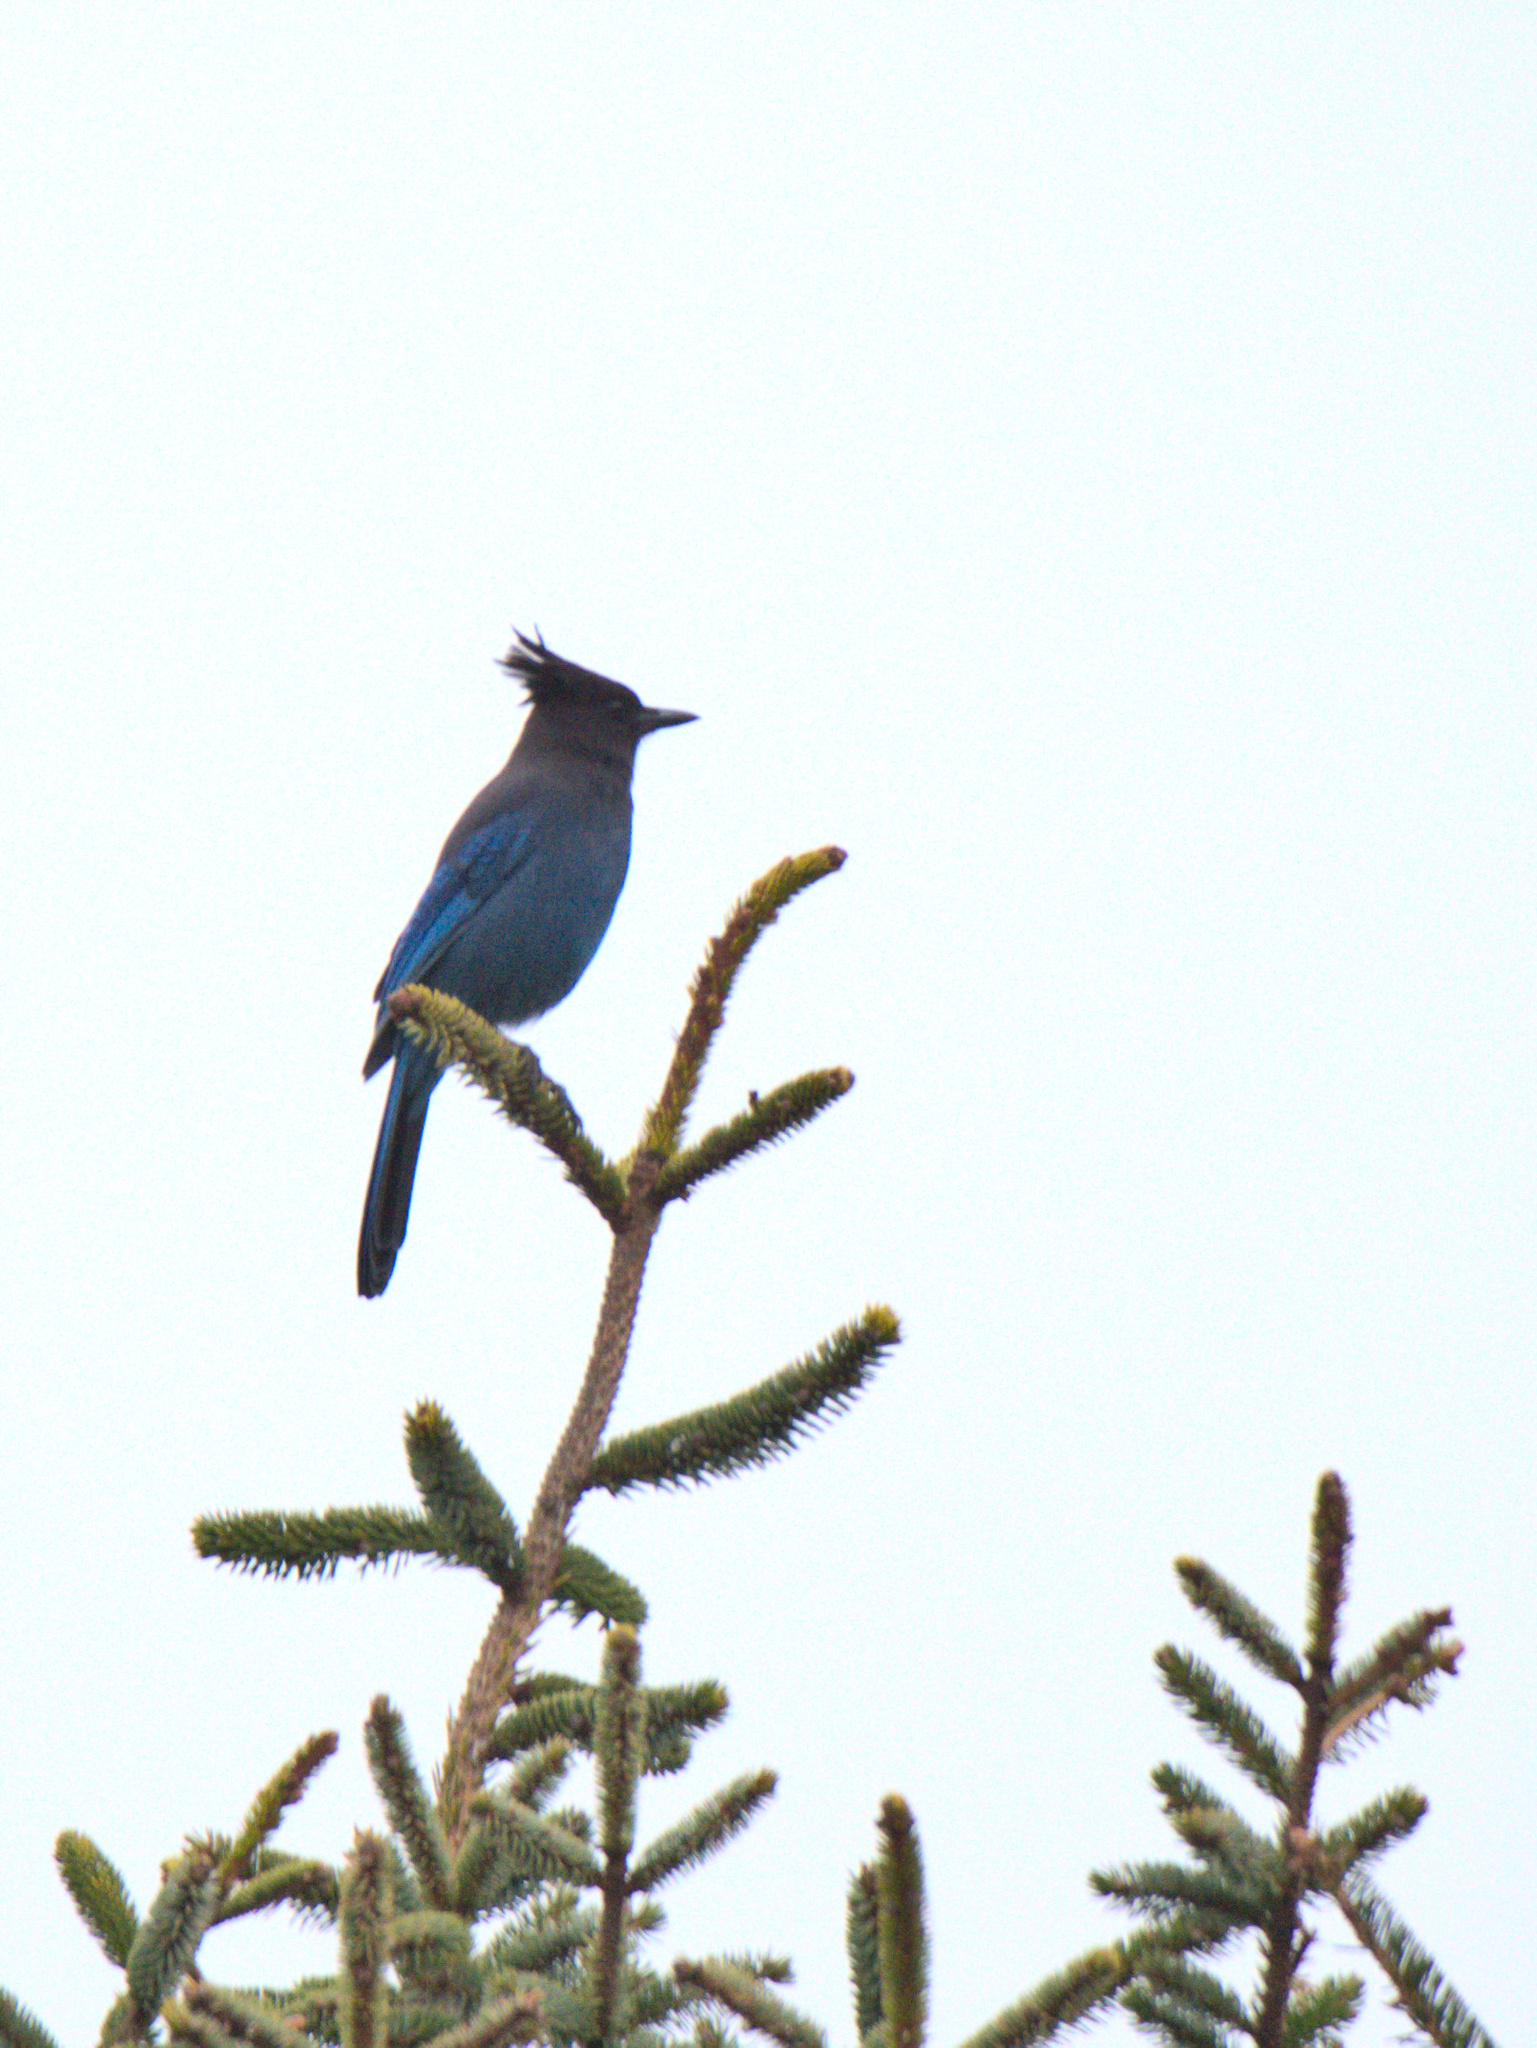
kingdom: Animalia
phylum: Chordata
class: Aves
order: Passeriformes
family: Corvidae
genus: Cyanocitta
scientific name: Cyanocitta stelleri
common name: Steller's jay
